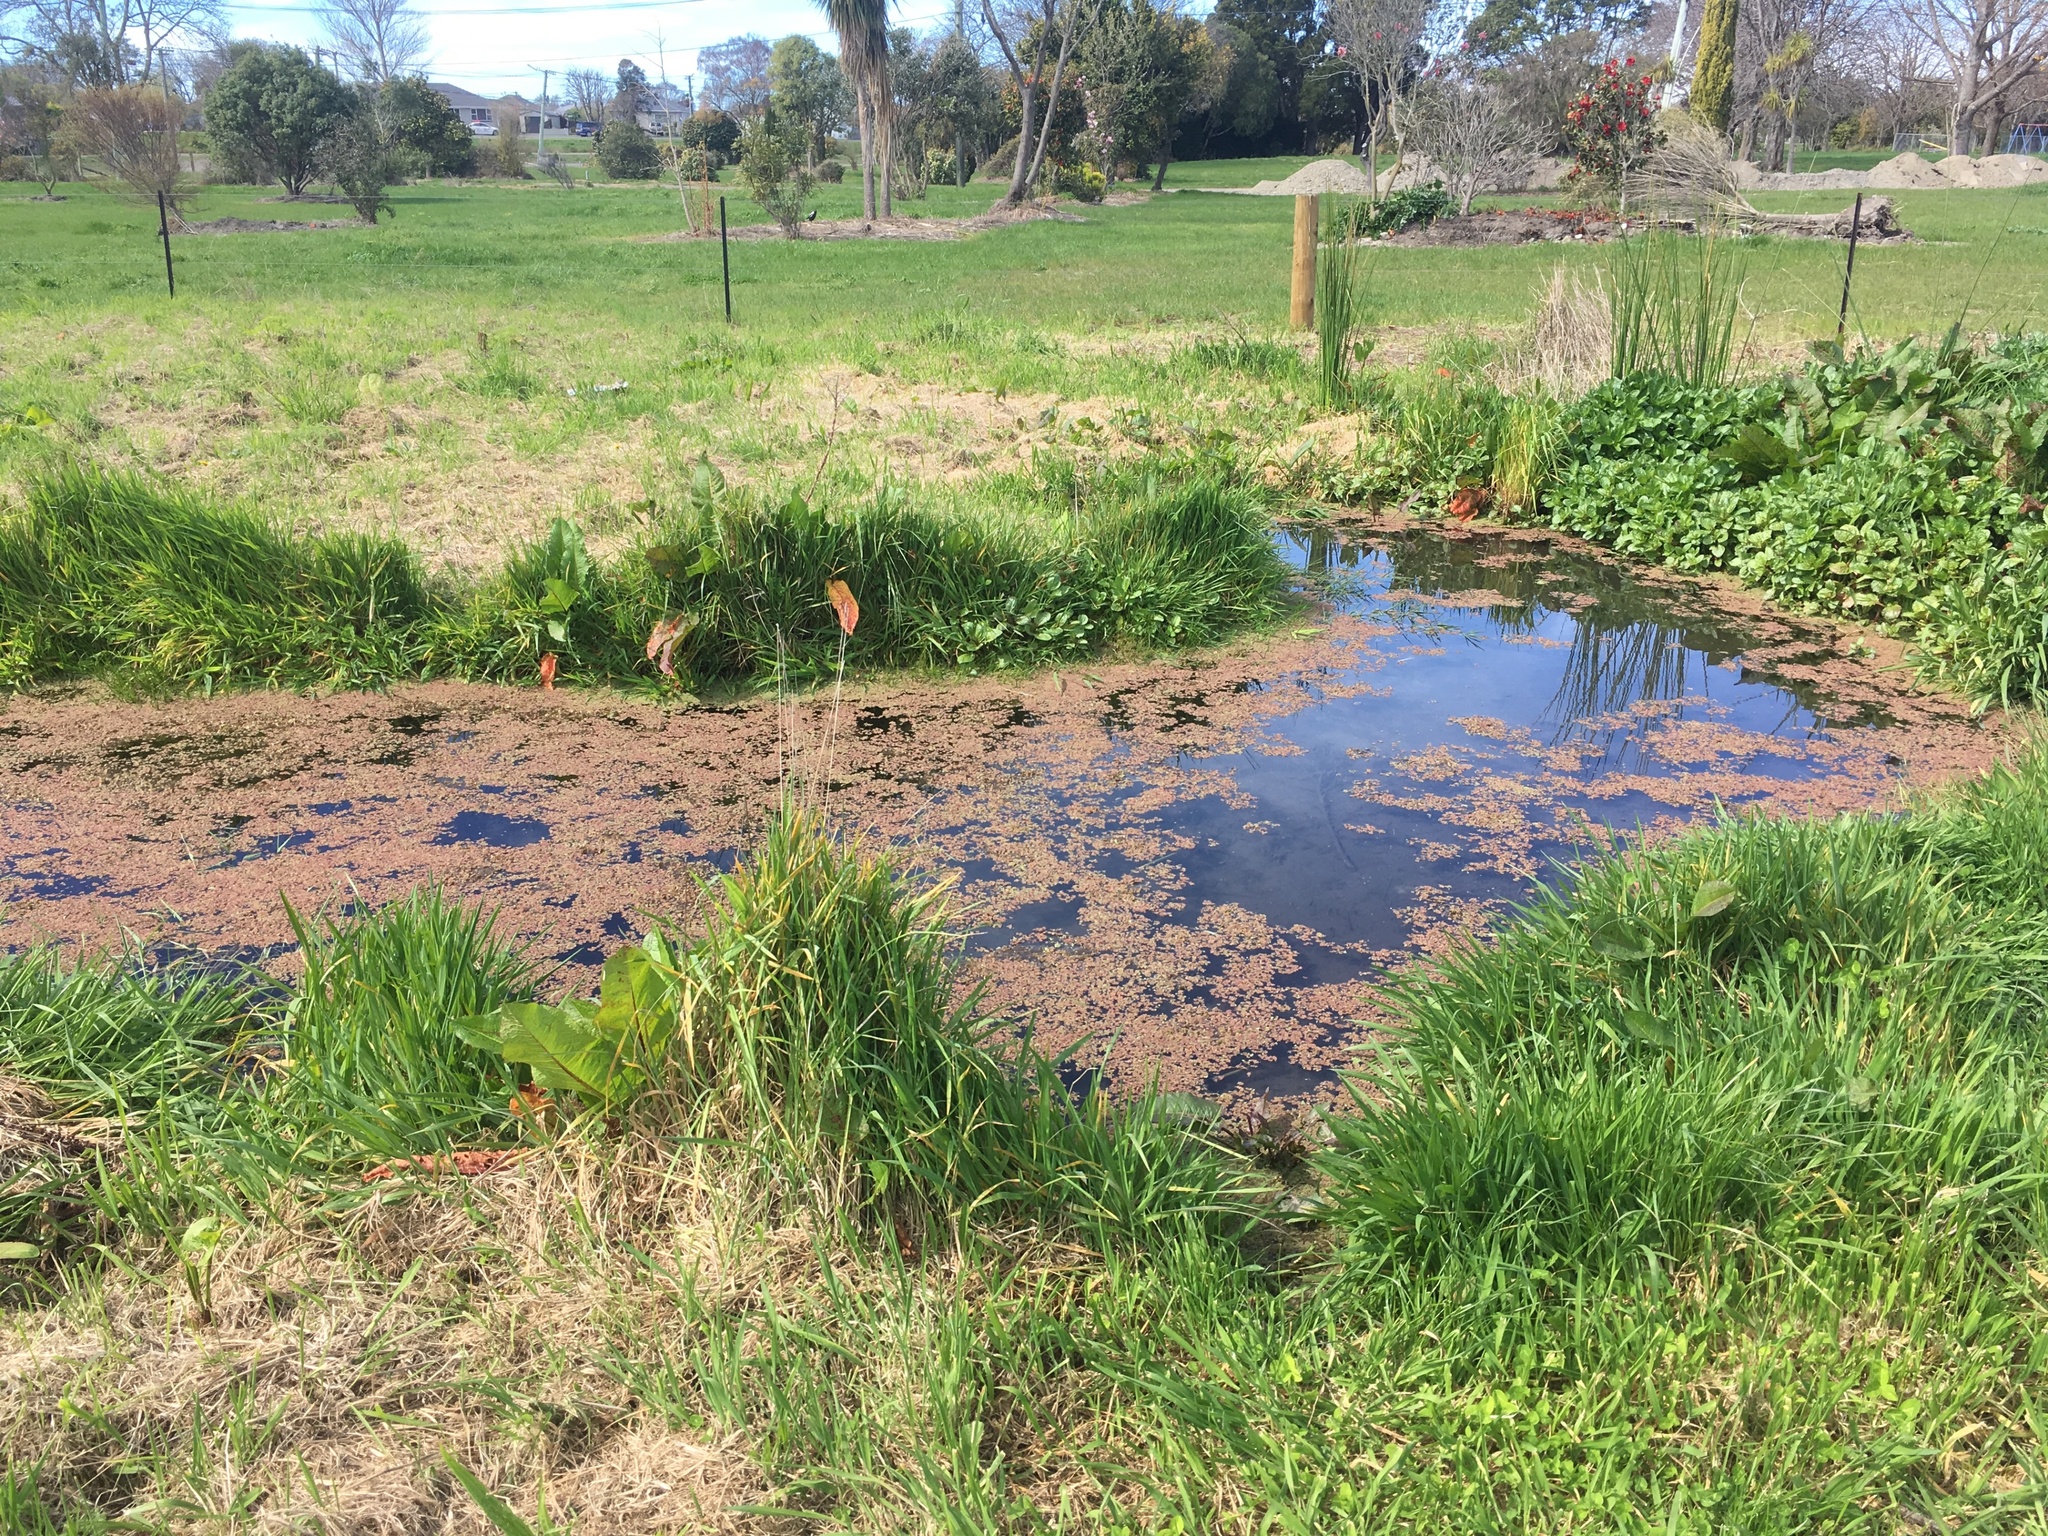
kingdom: Plantae
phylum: Tracheophyta
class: Polypodiopsida
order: Salviniales
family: Salviniaceae
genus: Azolla
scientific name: Azolla rubra
